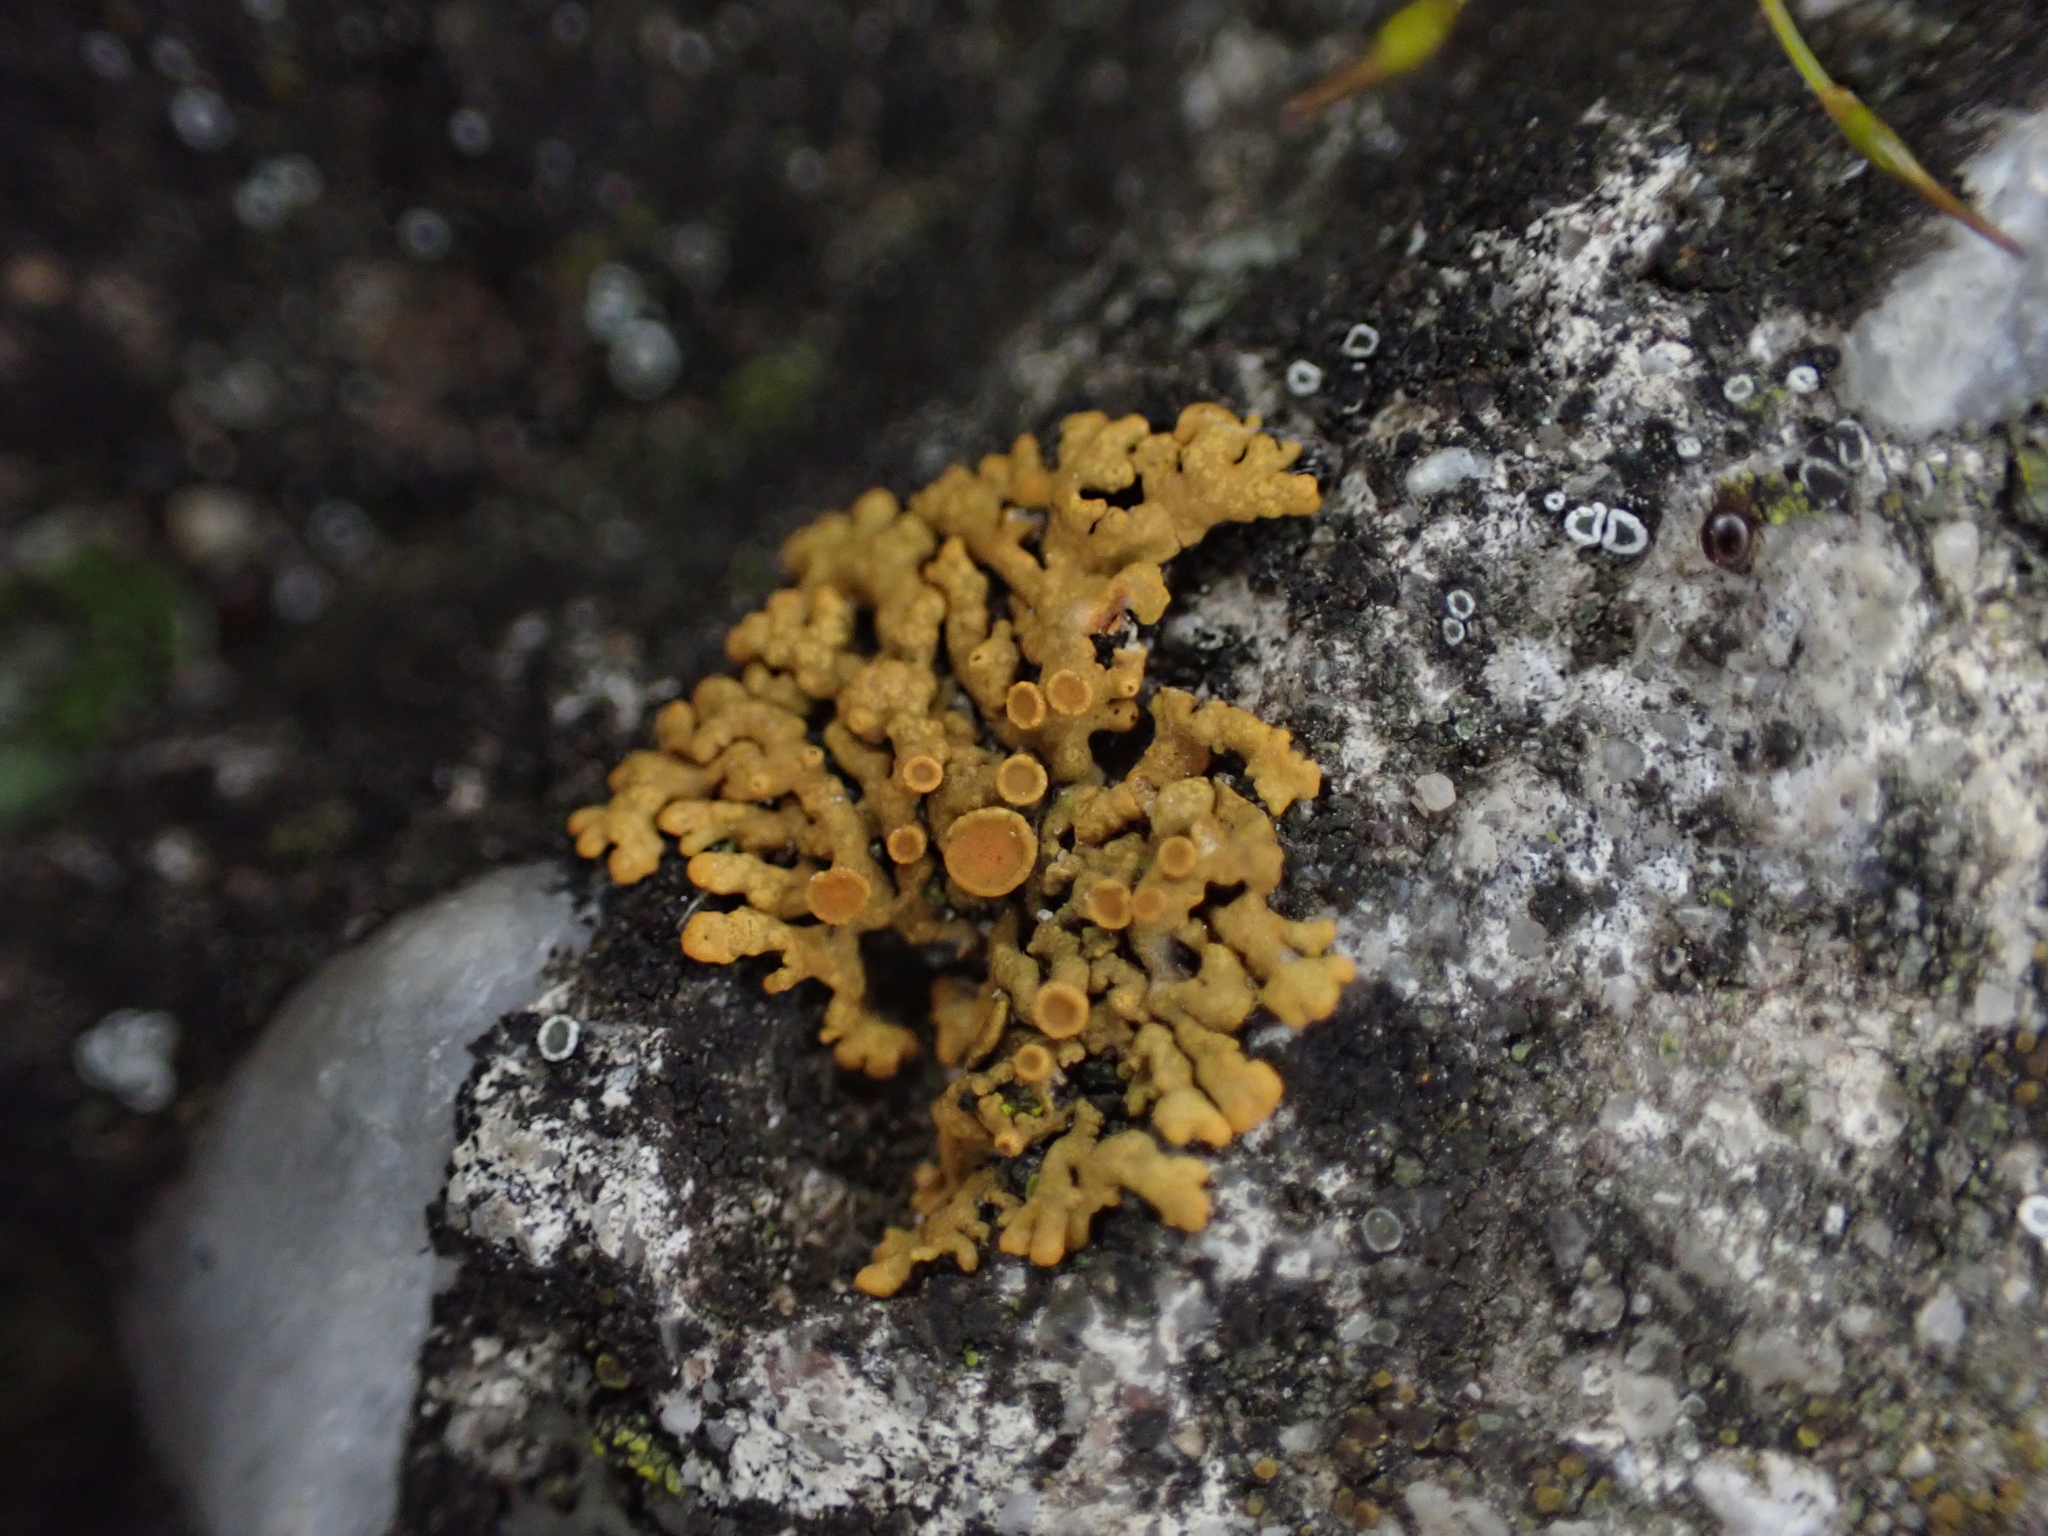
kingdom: Fungi
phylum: Ascomycota
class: Lecanoromycetes
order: Teloschistales
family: Teloschistaceae
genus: Xanthoria
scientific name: Xanthoria elegans
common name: Elegant sunburst lichen
